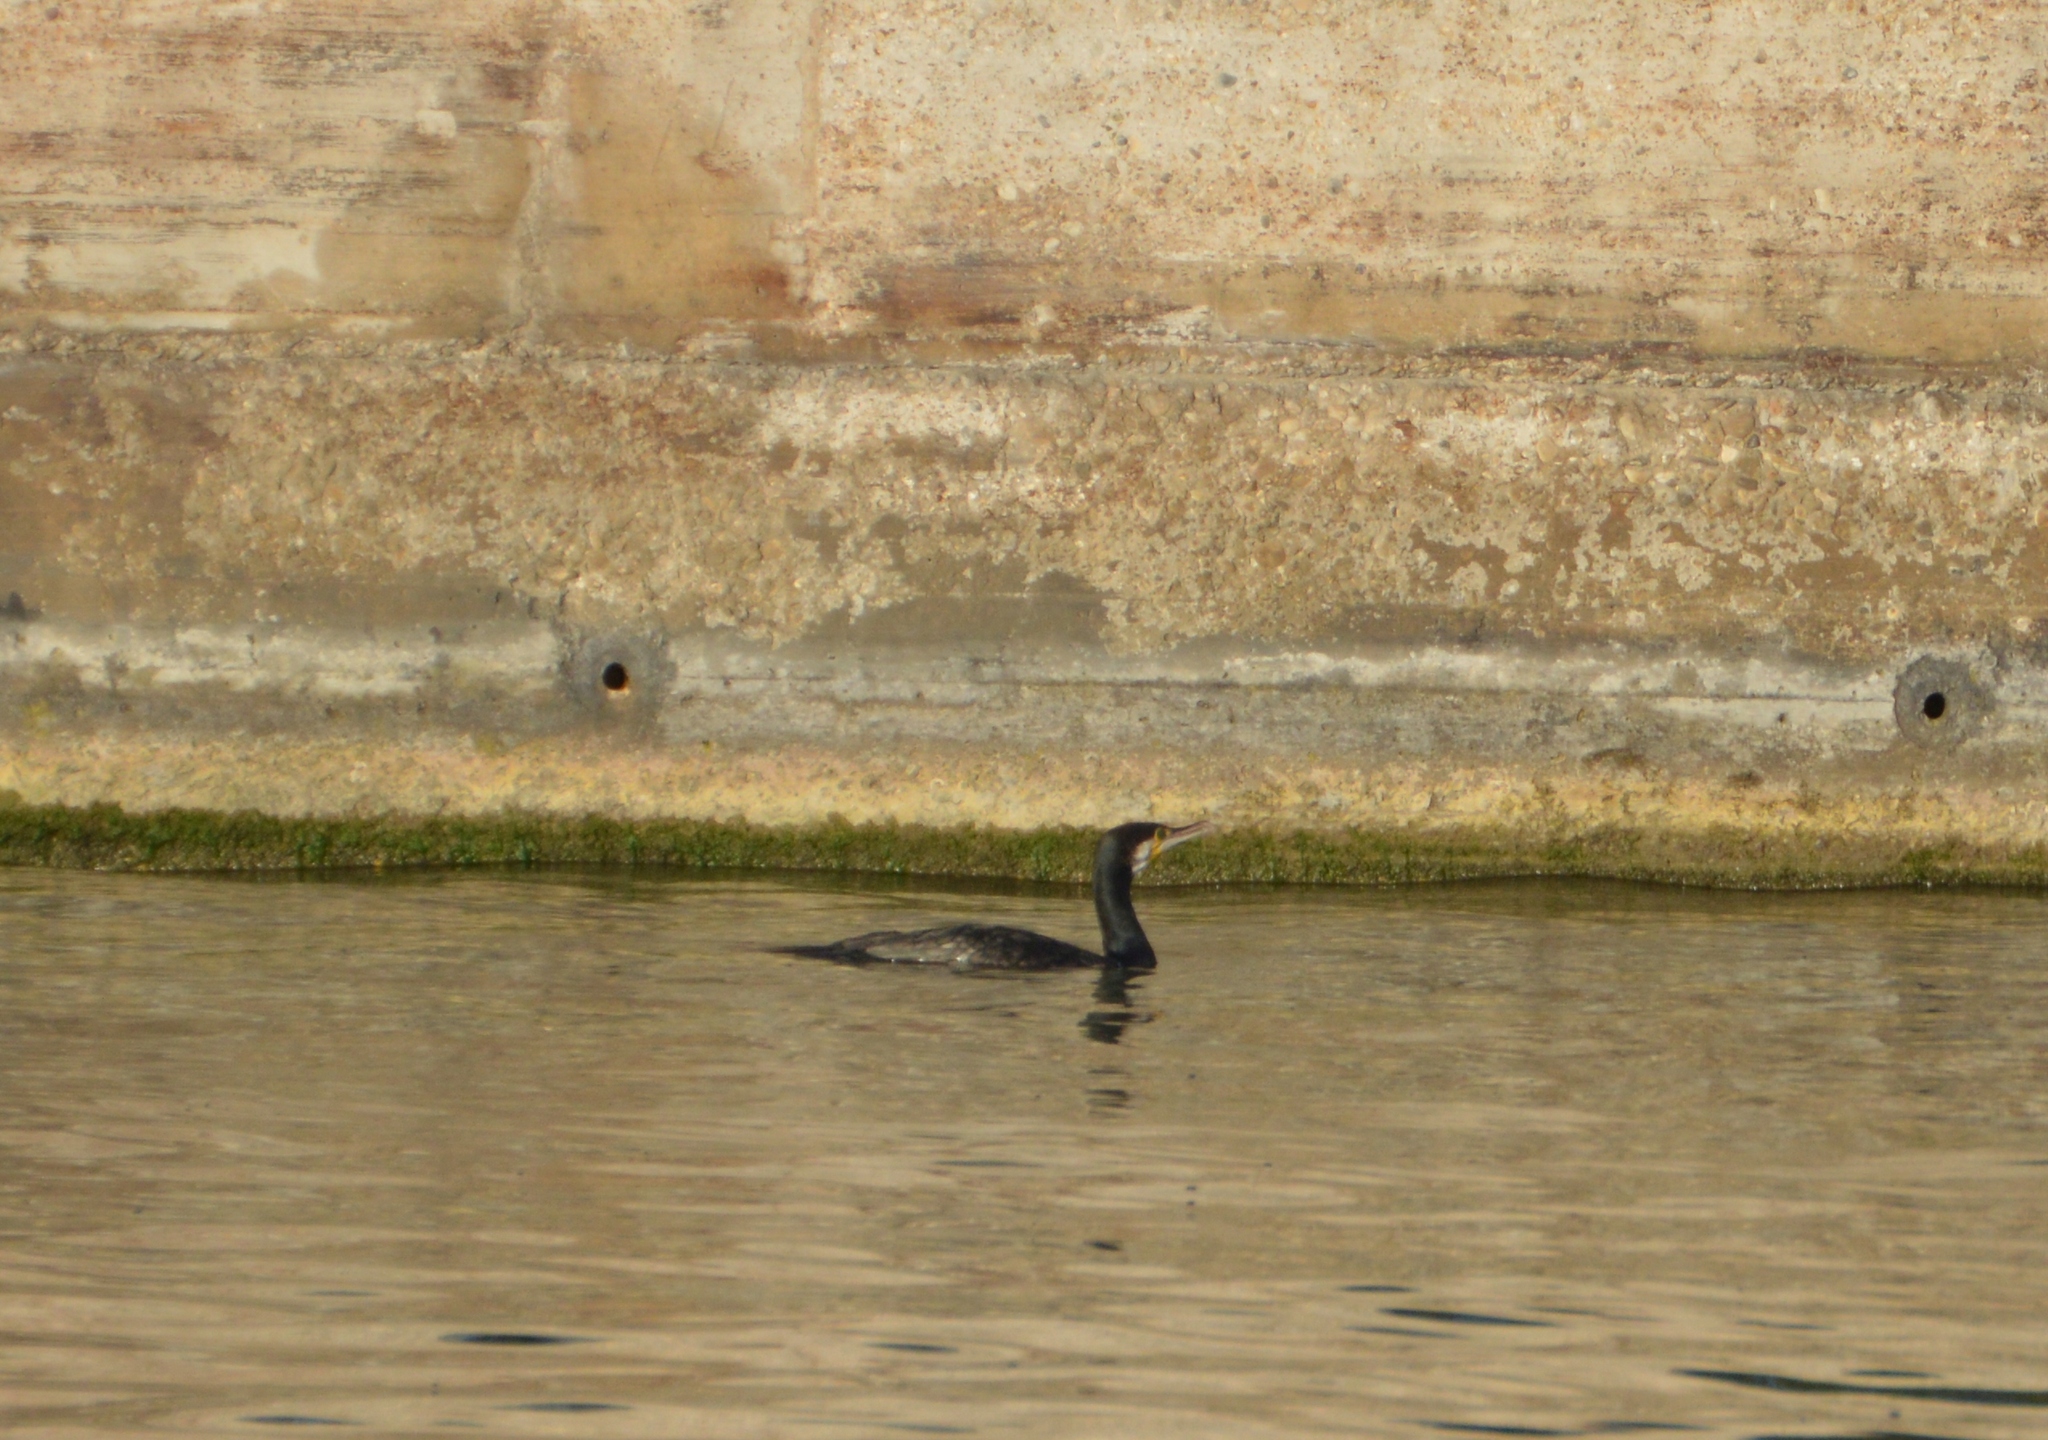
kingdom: Animalia
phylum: Chordata
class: Aves
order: Suliformes
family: Phalacrocoracidae
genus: Phalacrocorax
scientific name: Phalacrocorax carbo
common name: Great cormorant
